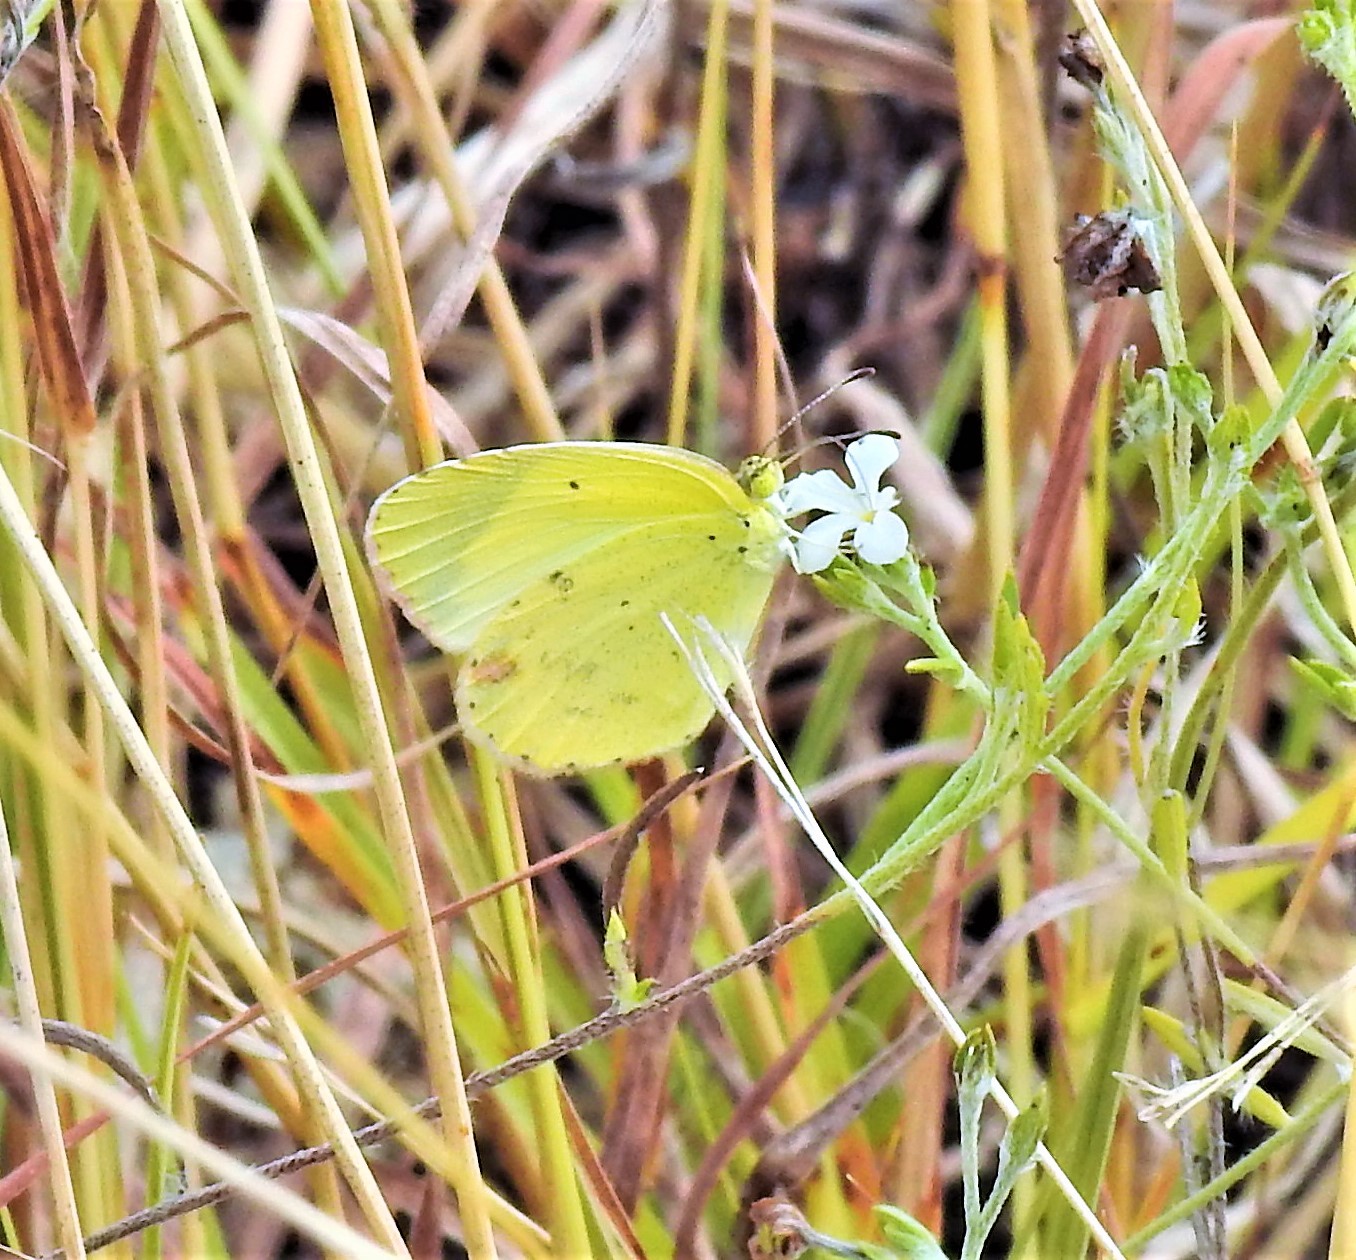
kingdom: Animalia
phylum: Arthropoda
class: Insecta
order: Lepidoptera
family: Pieridae
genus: Pyrisitia
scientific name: Pyrisitia lisa
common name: Little yellow
